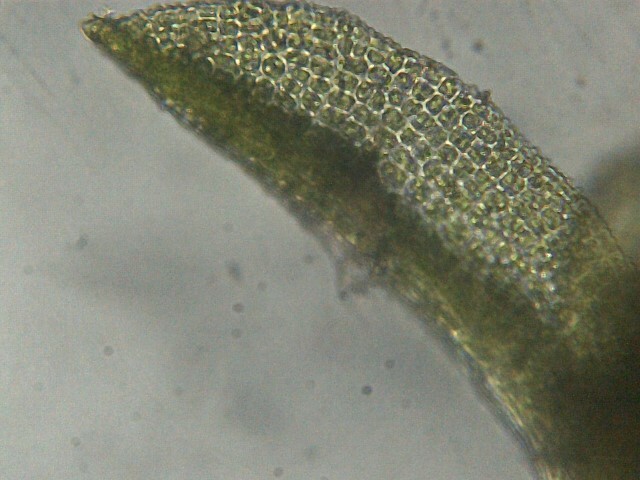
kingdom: Plantae
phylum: Bryophyta
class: Bryopsida
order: Pottiales
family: Pottiaceae
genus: Gymnostomum
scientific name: Gymnostomum viridulum
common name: Luisier's tufa-moss
